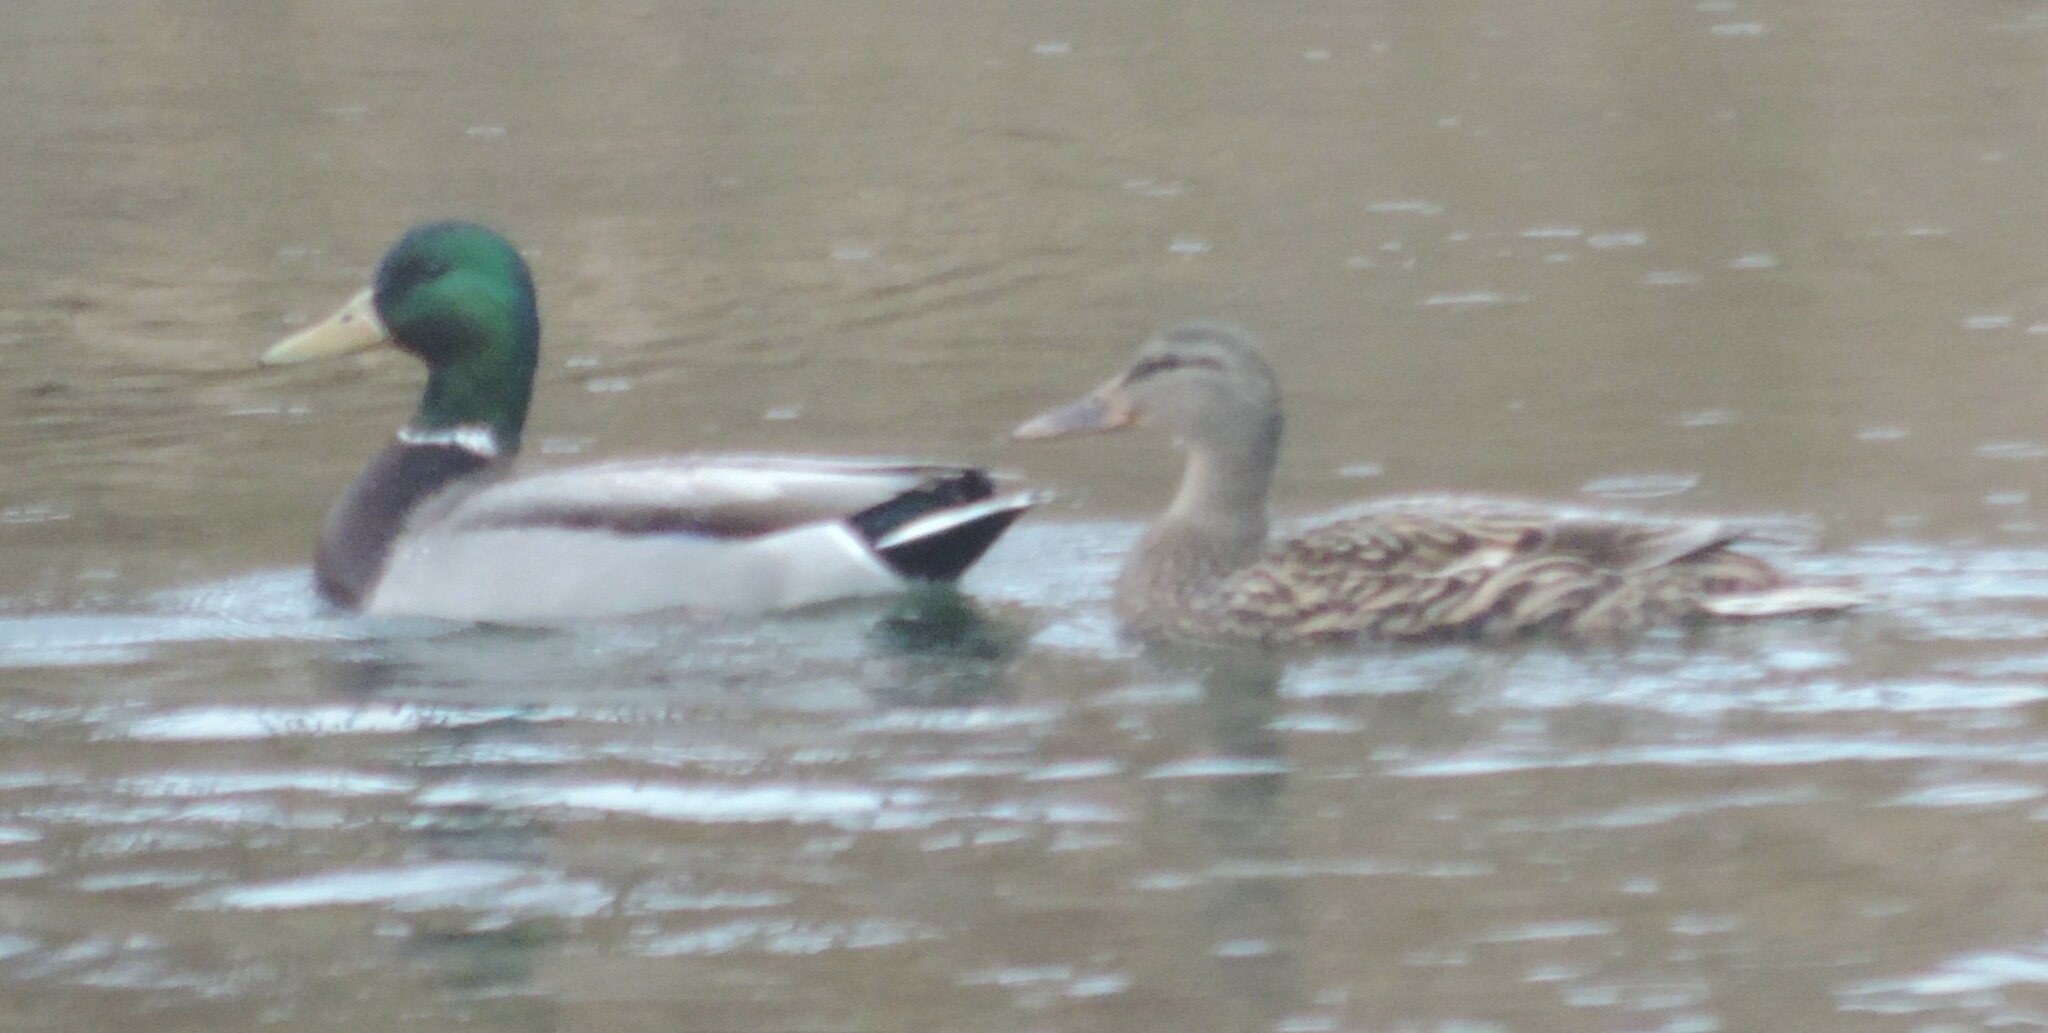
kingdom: Animalia
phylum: Chordata
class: Aves
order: Anseriformes
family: Anatidae
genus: Anas
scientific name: Anas platyrhynchos
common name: Mallard
